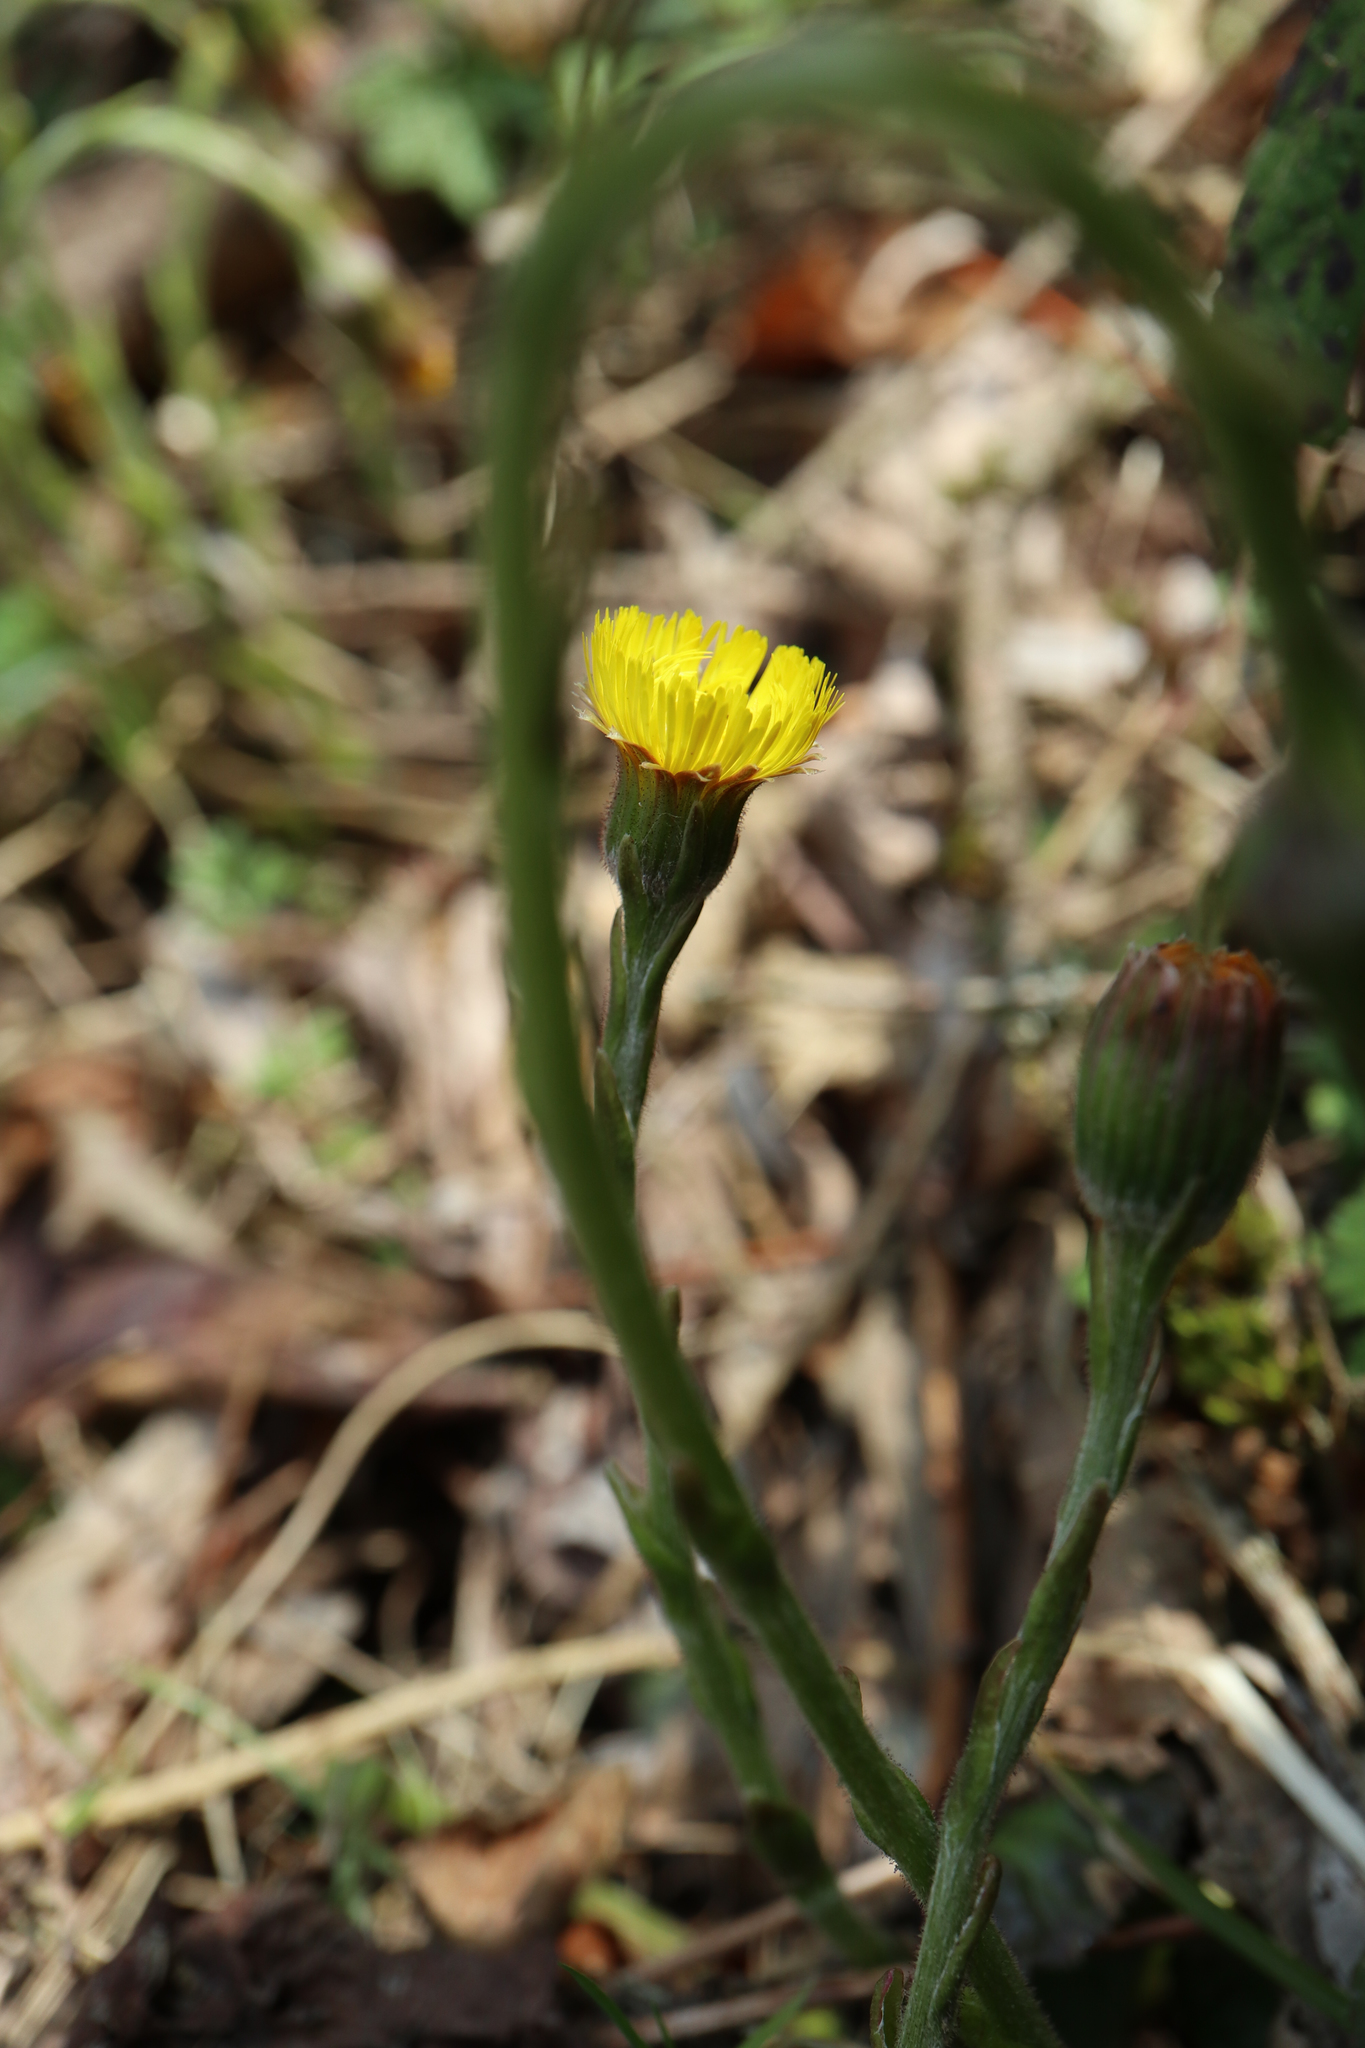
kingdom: Plantae
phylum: Tracheophyta
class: Magnoliopsida
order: Asterales
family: Asteraceae
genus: Tussilago
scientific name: Tussilago farfara
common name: Coltsfoot
